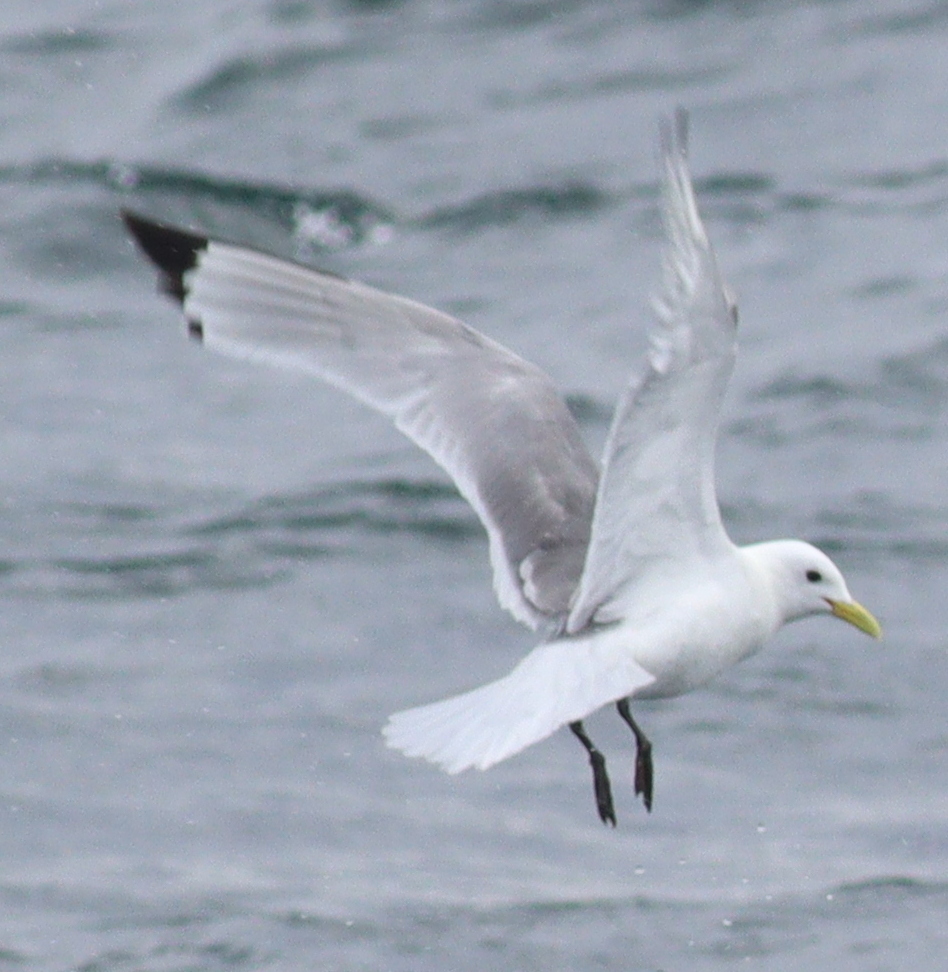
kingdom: Animalia
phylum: Chordata
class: Aves
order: Charadriiformes
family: Laridae
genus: Rissa
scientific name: Rissa tridactyla
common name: Black-legged kittiwake
